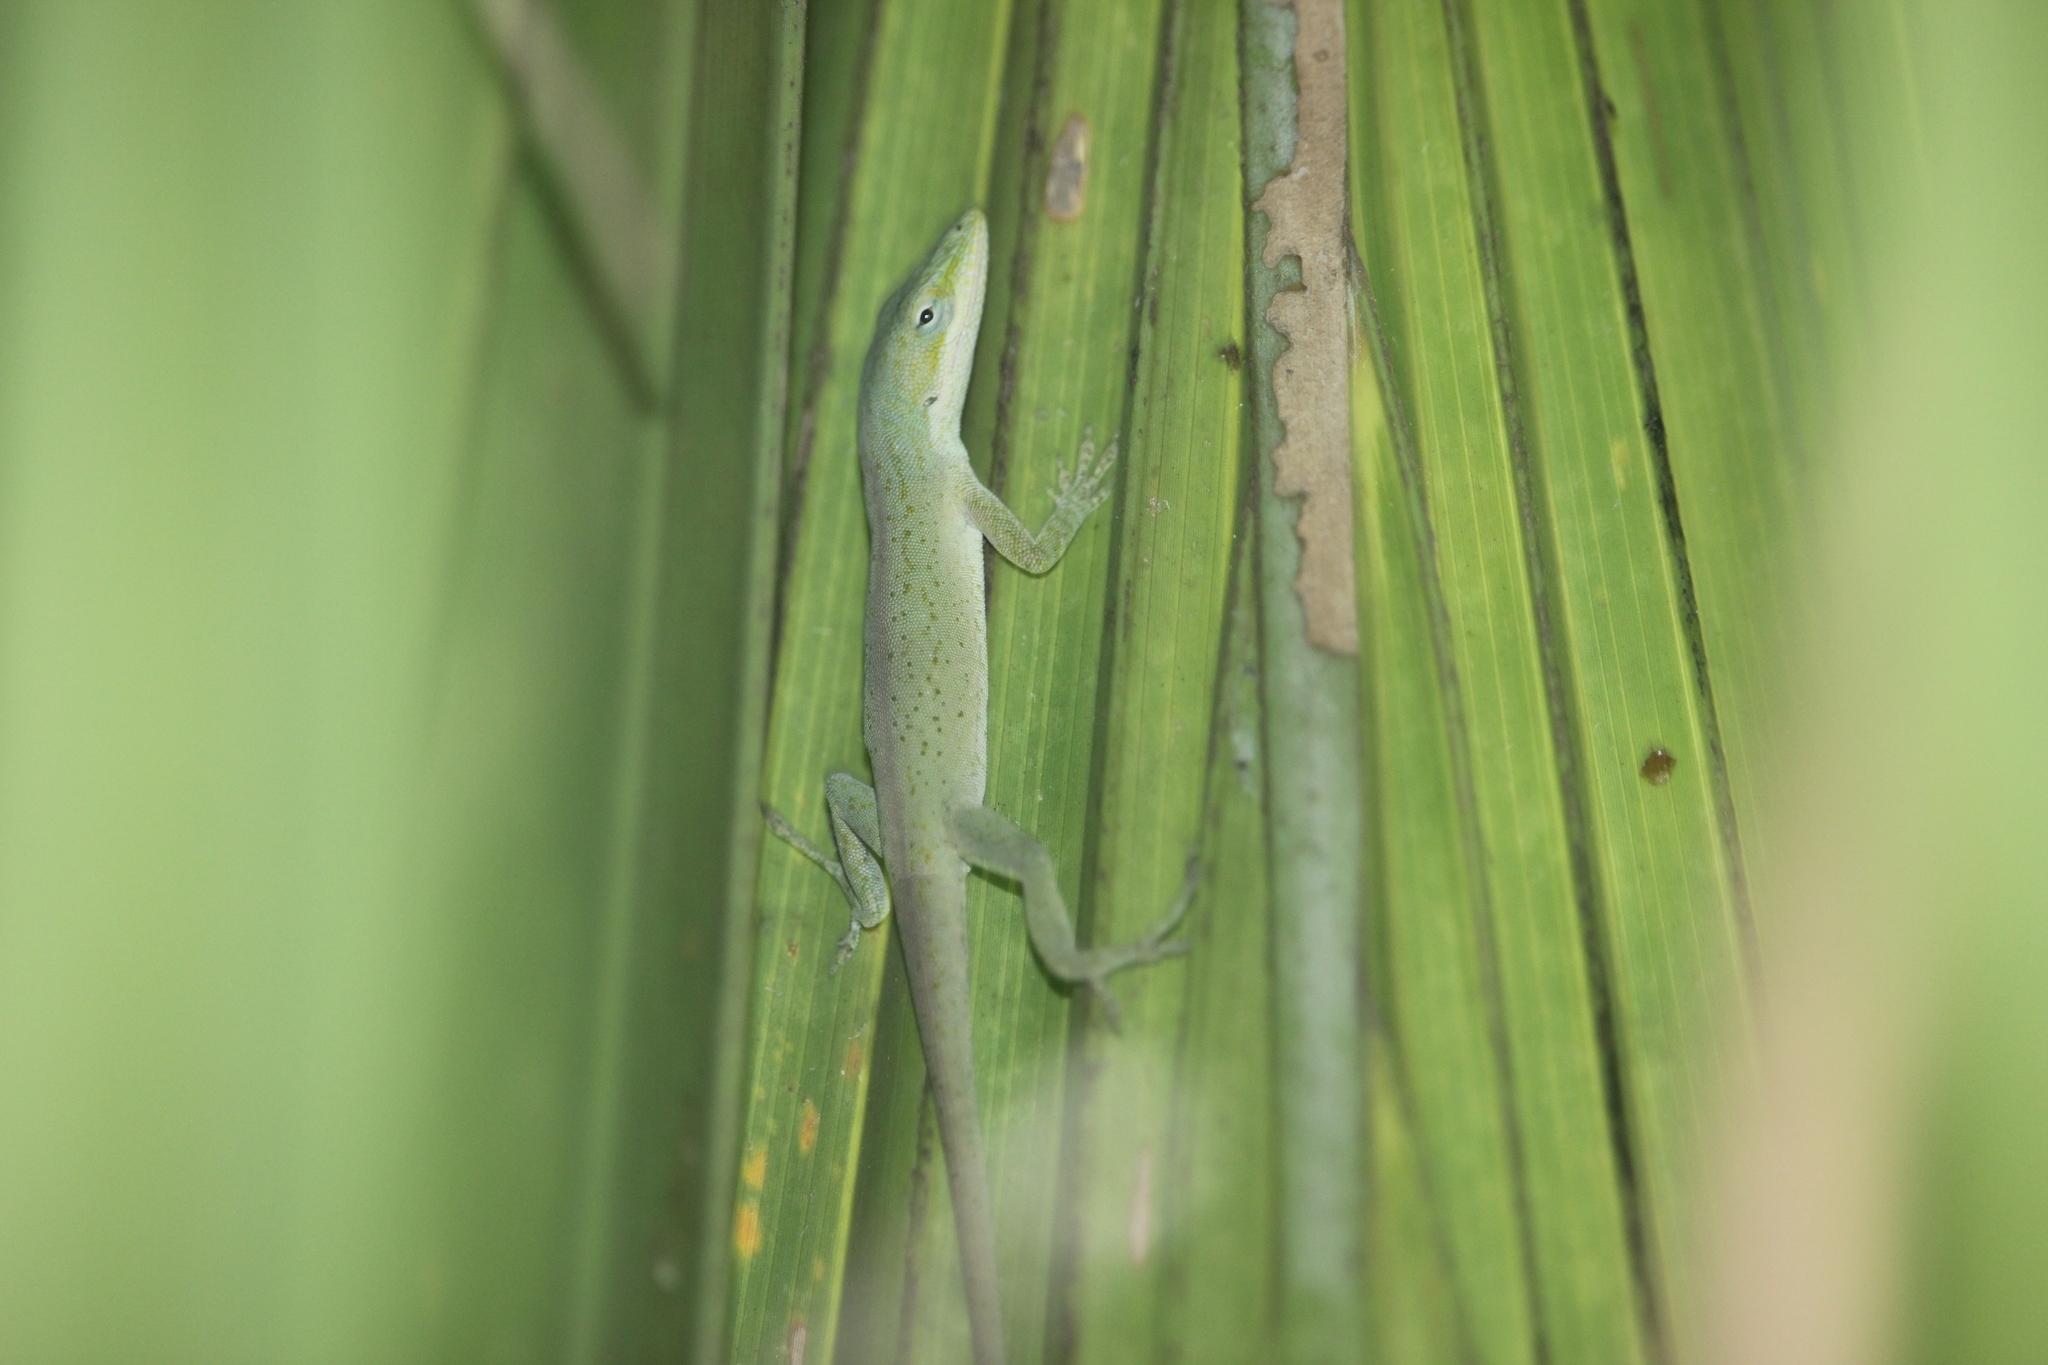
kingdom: Animalia
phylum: Chordata
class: Squamata
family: Dactyloidae
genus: Anolis
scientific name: Anolis carolinensis
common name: Green anole
